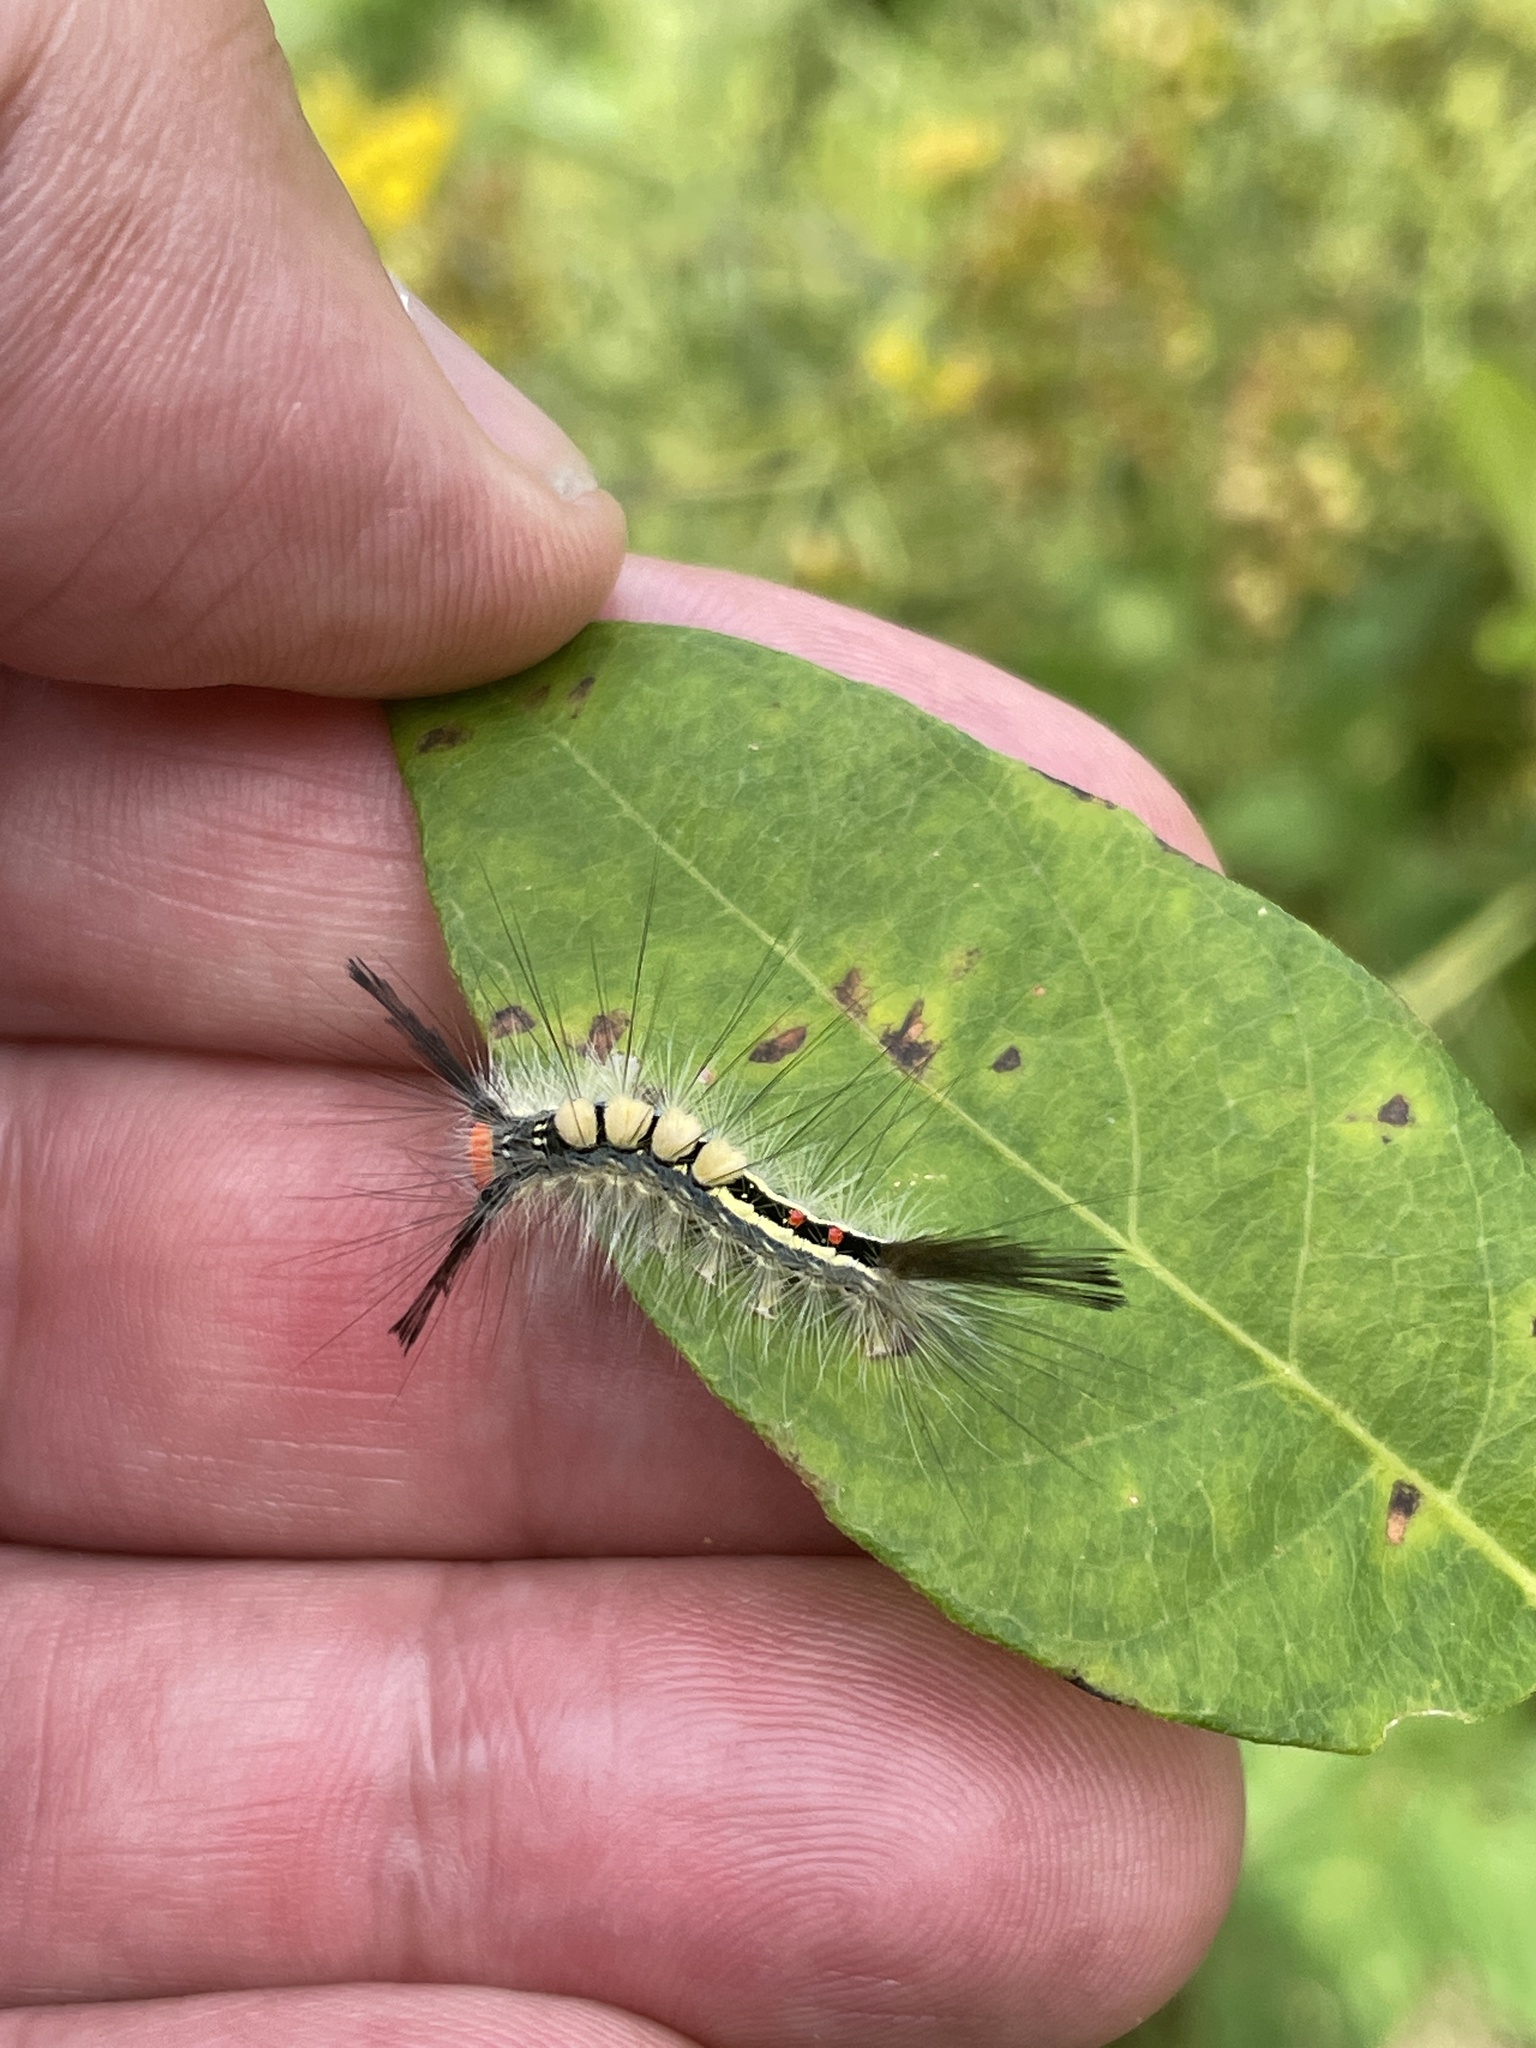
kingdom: Animalia
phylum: Arthropoda
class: Insecta
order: Lepidoptera
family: Erebidae
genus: Orgyia
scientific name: Orgyia leucostigma
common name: White-marked tussock moth
